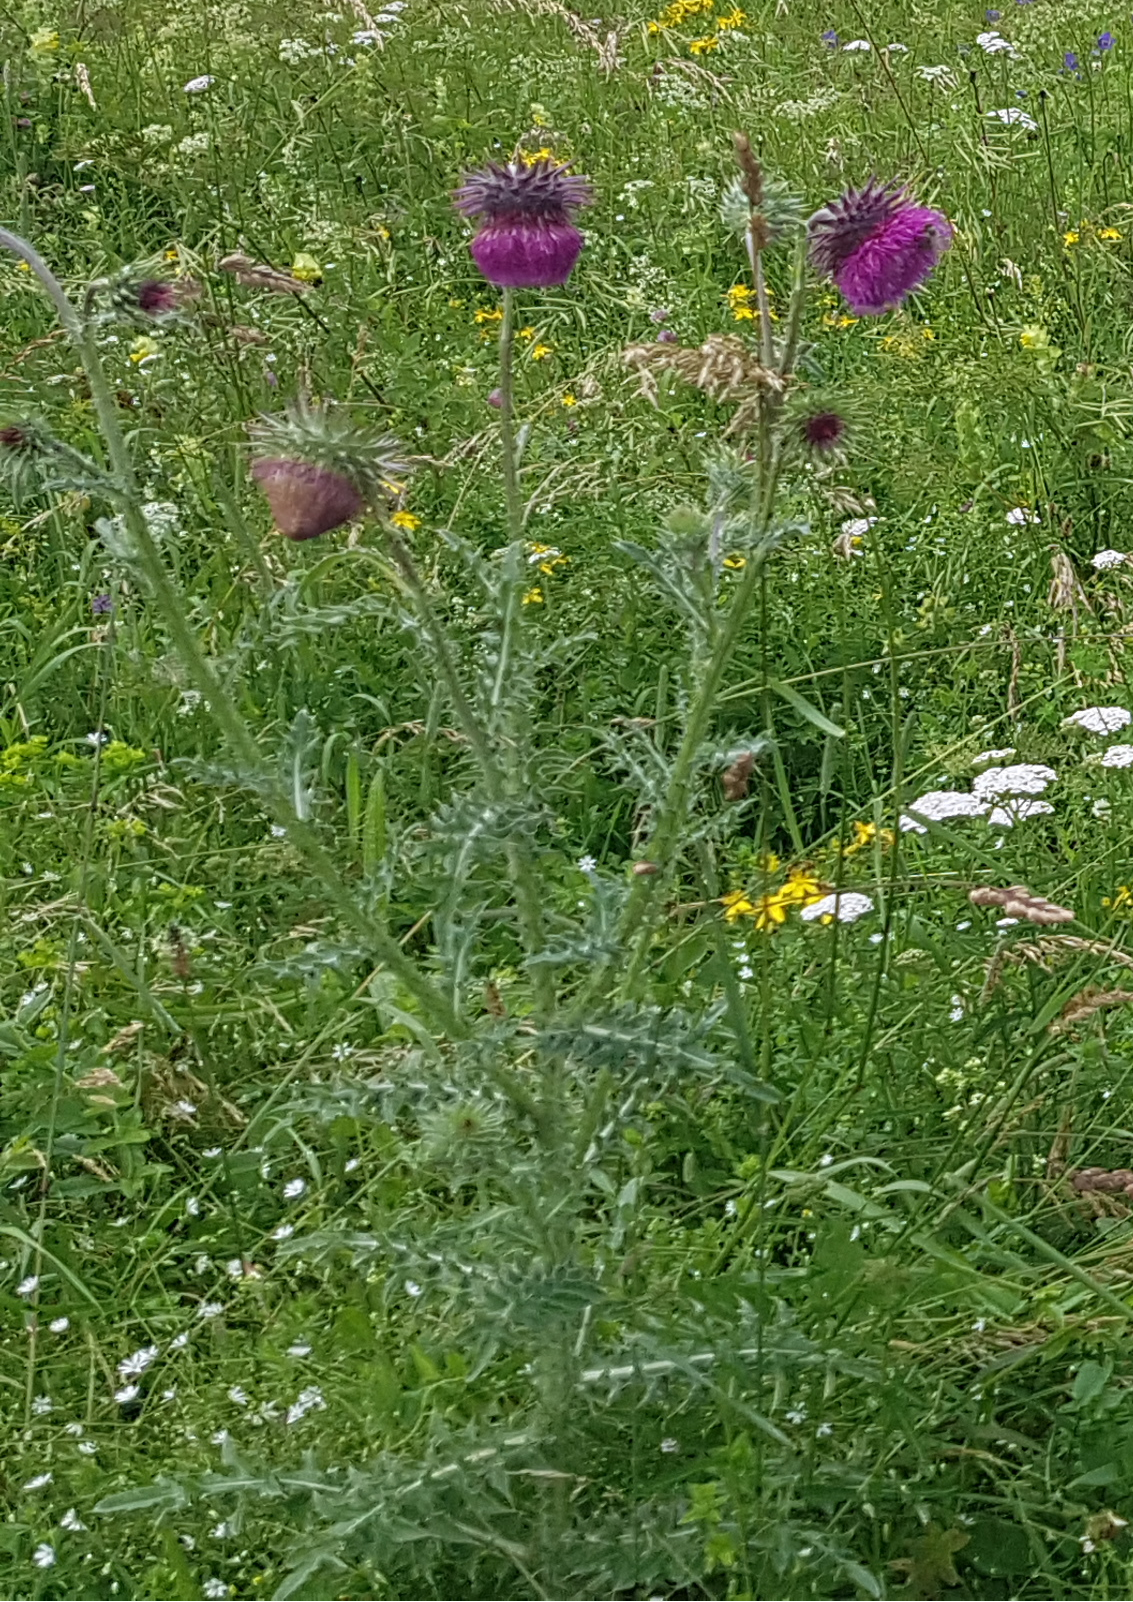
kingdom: Plantae
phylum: Tracheophyta
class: Magnoliopsida
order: Asterales
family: Asteraceae
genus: Carduus
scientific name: Carduus nutans
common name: Musk thistle
